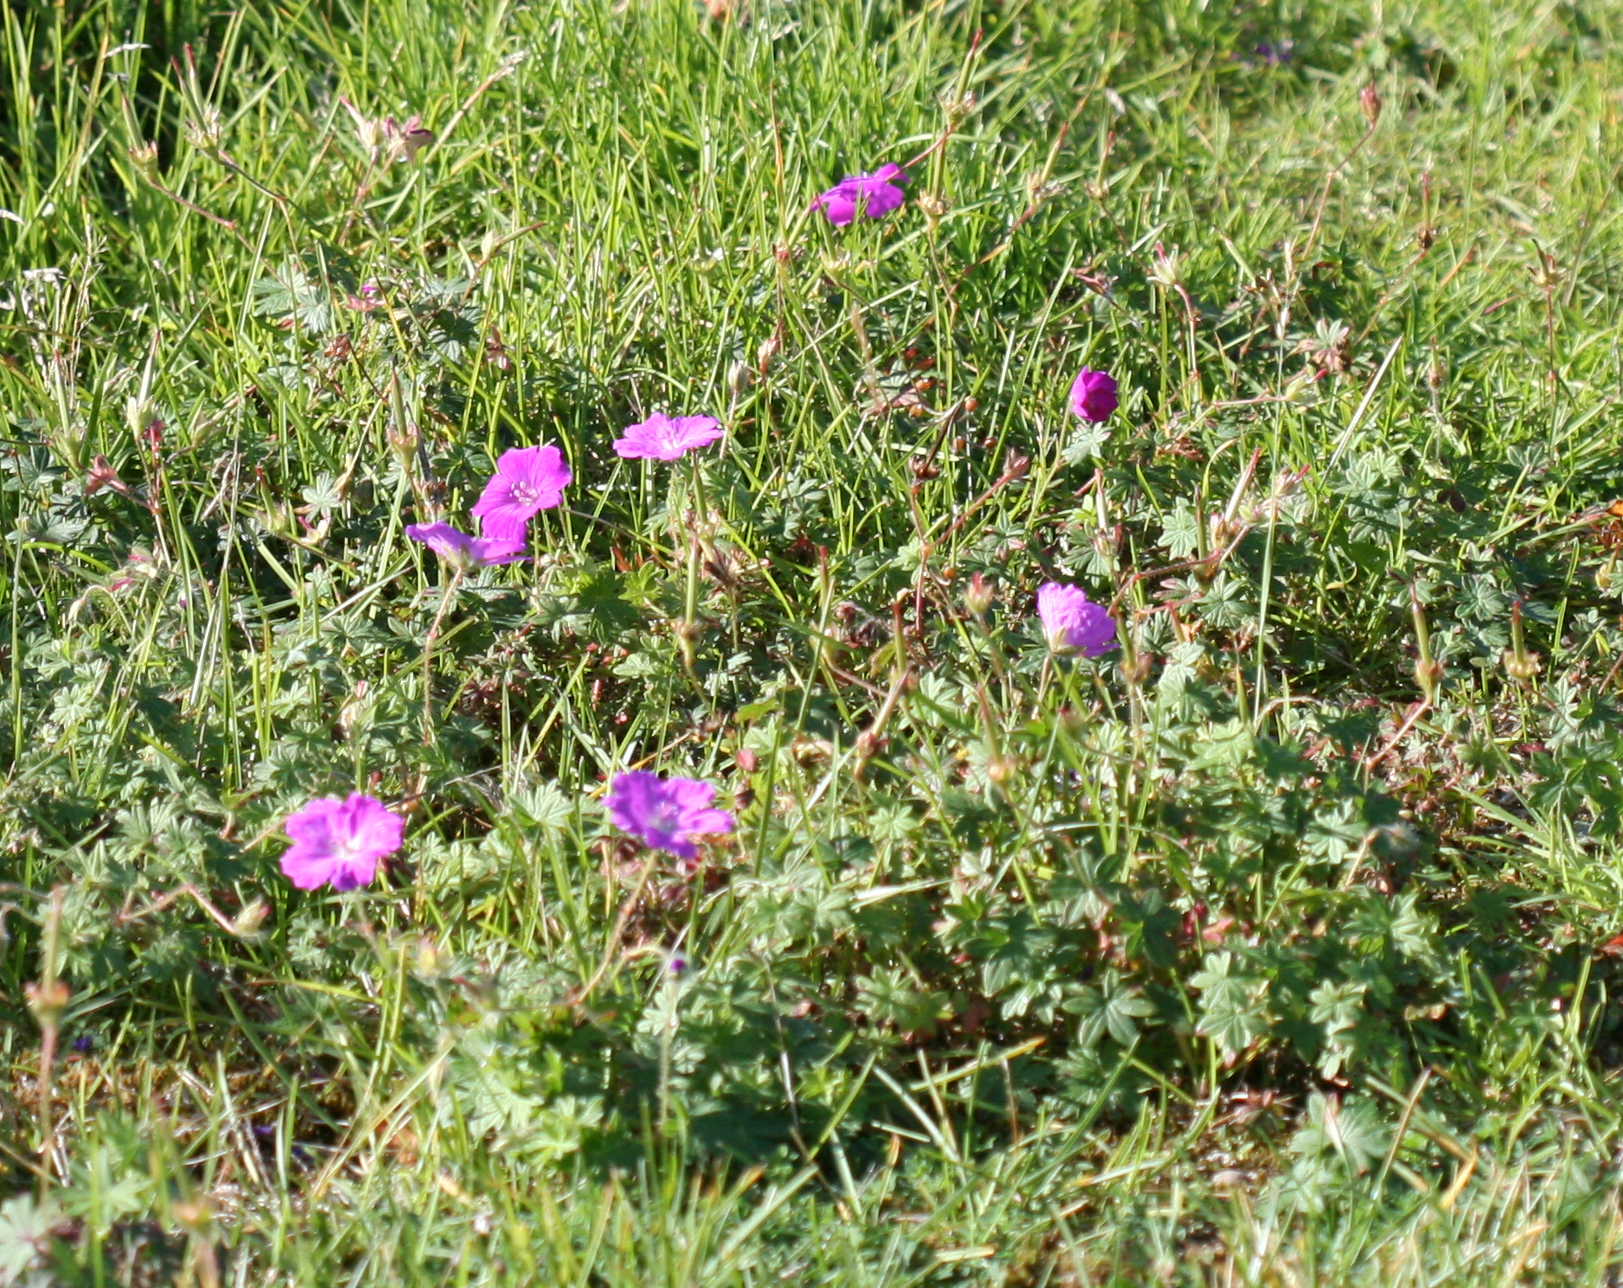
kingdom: Plantae
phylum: Tracheophyta
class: Magnoliopsida
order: Geraniales
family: Geraniaceae
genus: Geranium
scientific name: Geranium sanguineum
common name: Bloody crane's-bill
